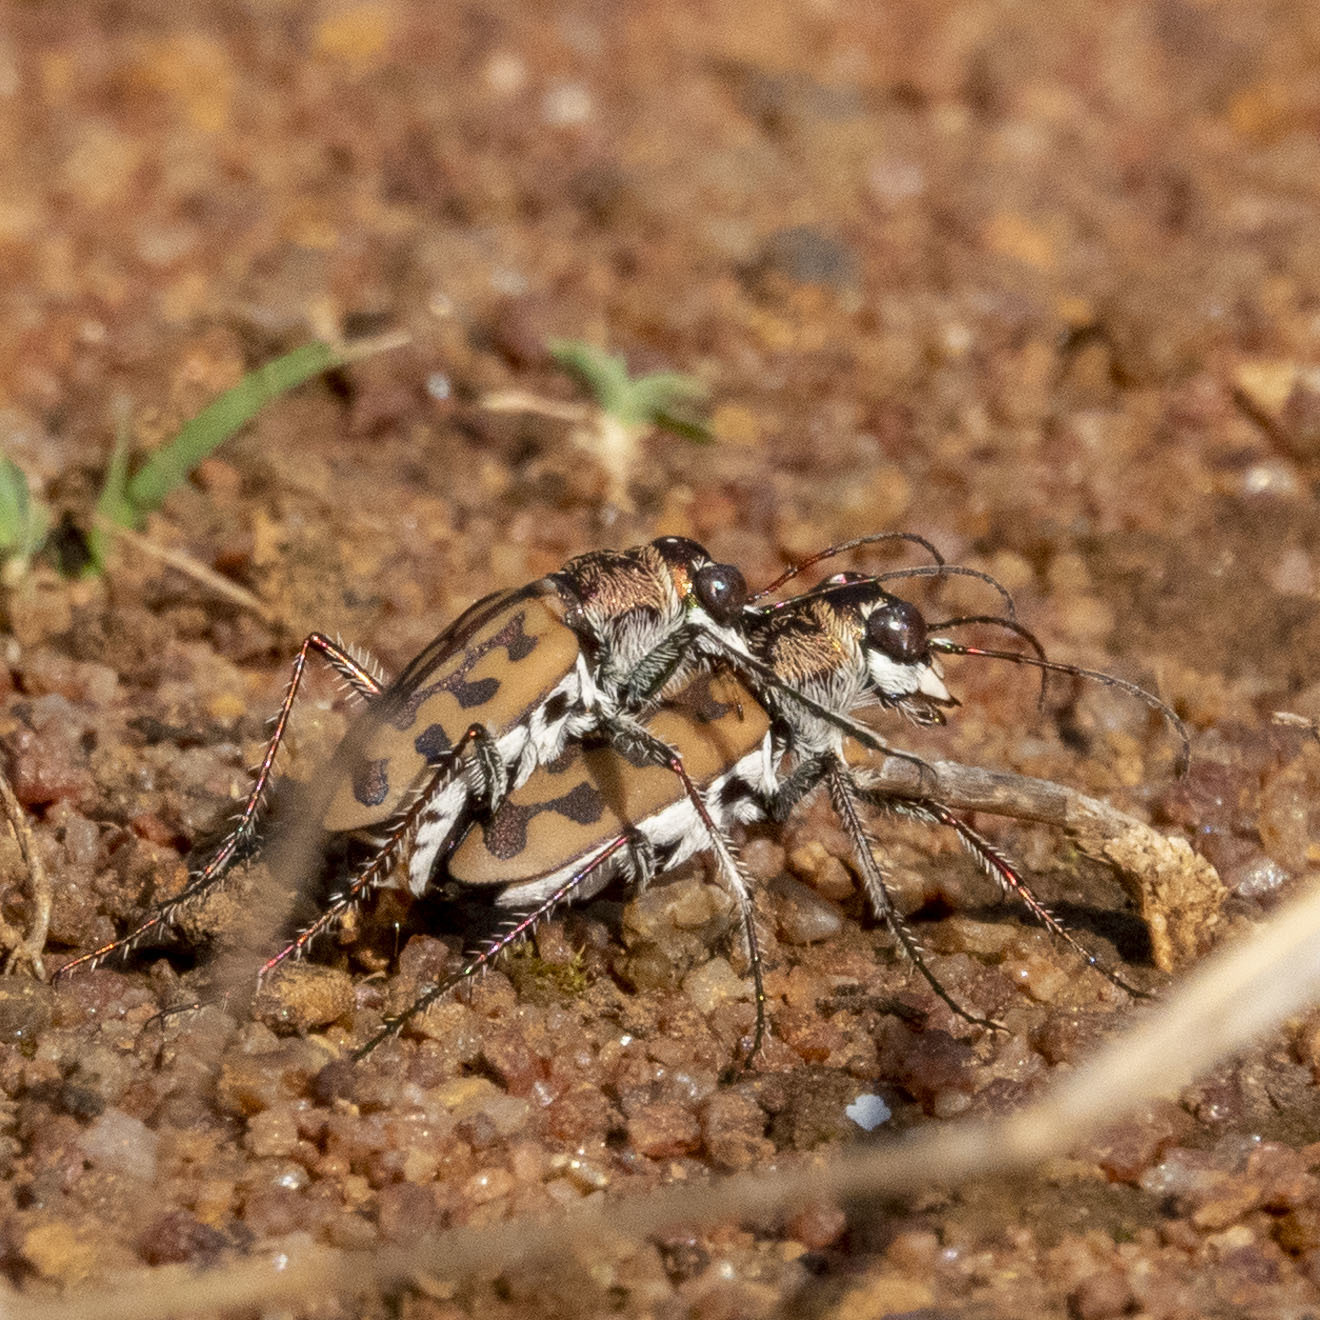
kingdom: Animalia
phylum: Arthropoda
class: Insecta
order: Coleoptera
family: Carabidae
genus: Lophyra
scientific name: Lophyra catena
